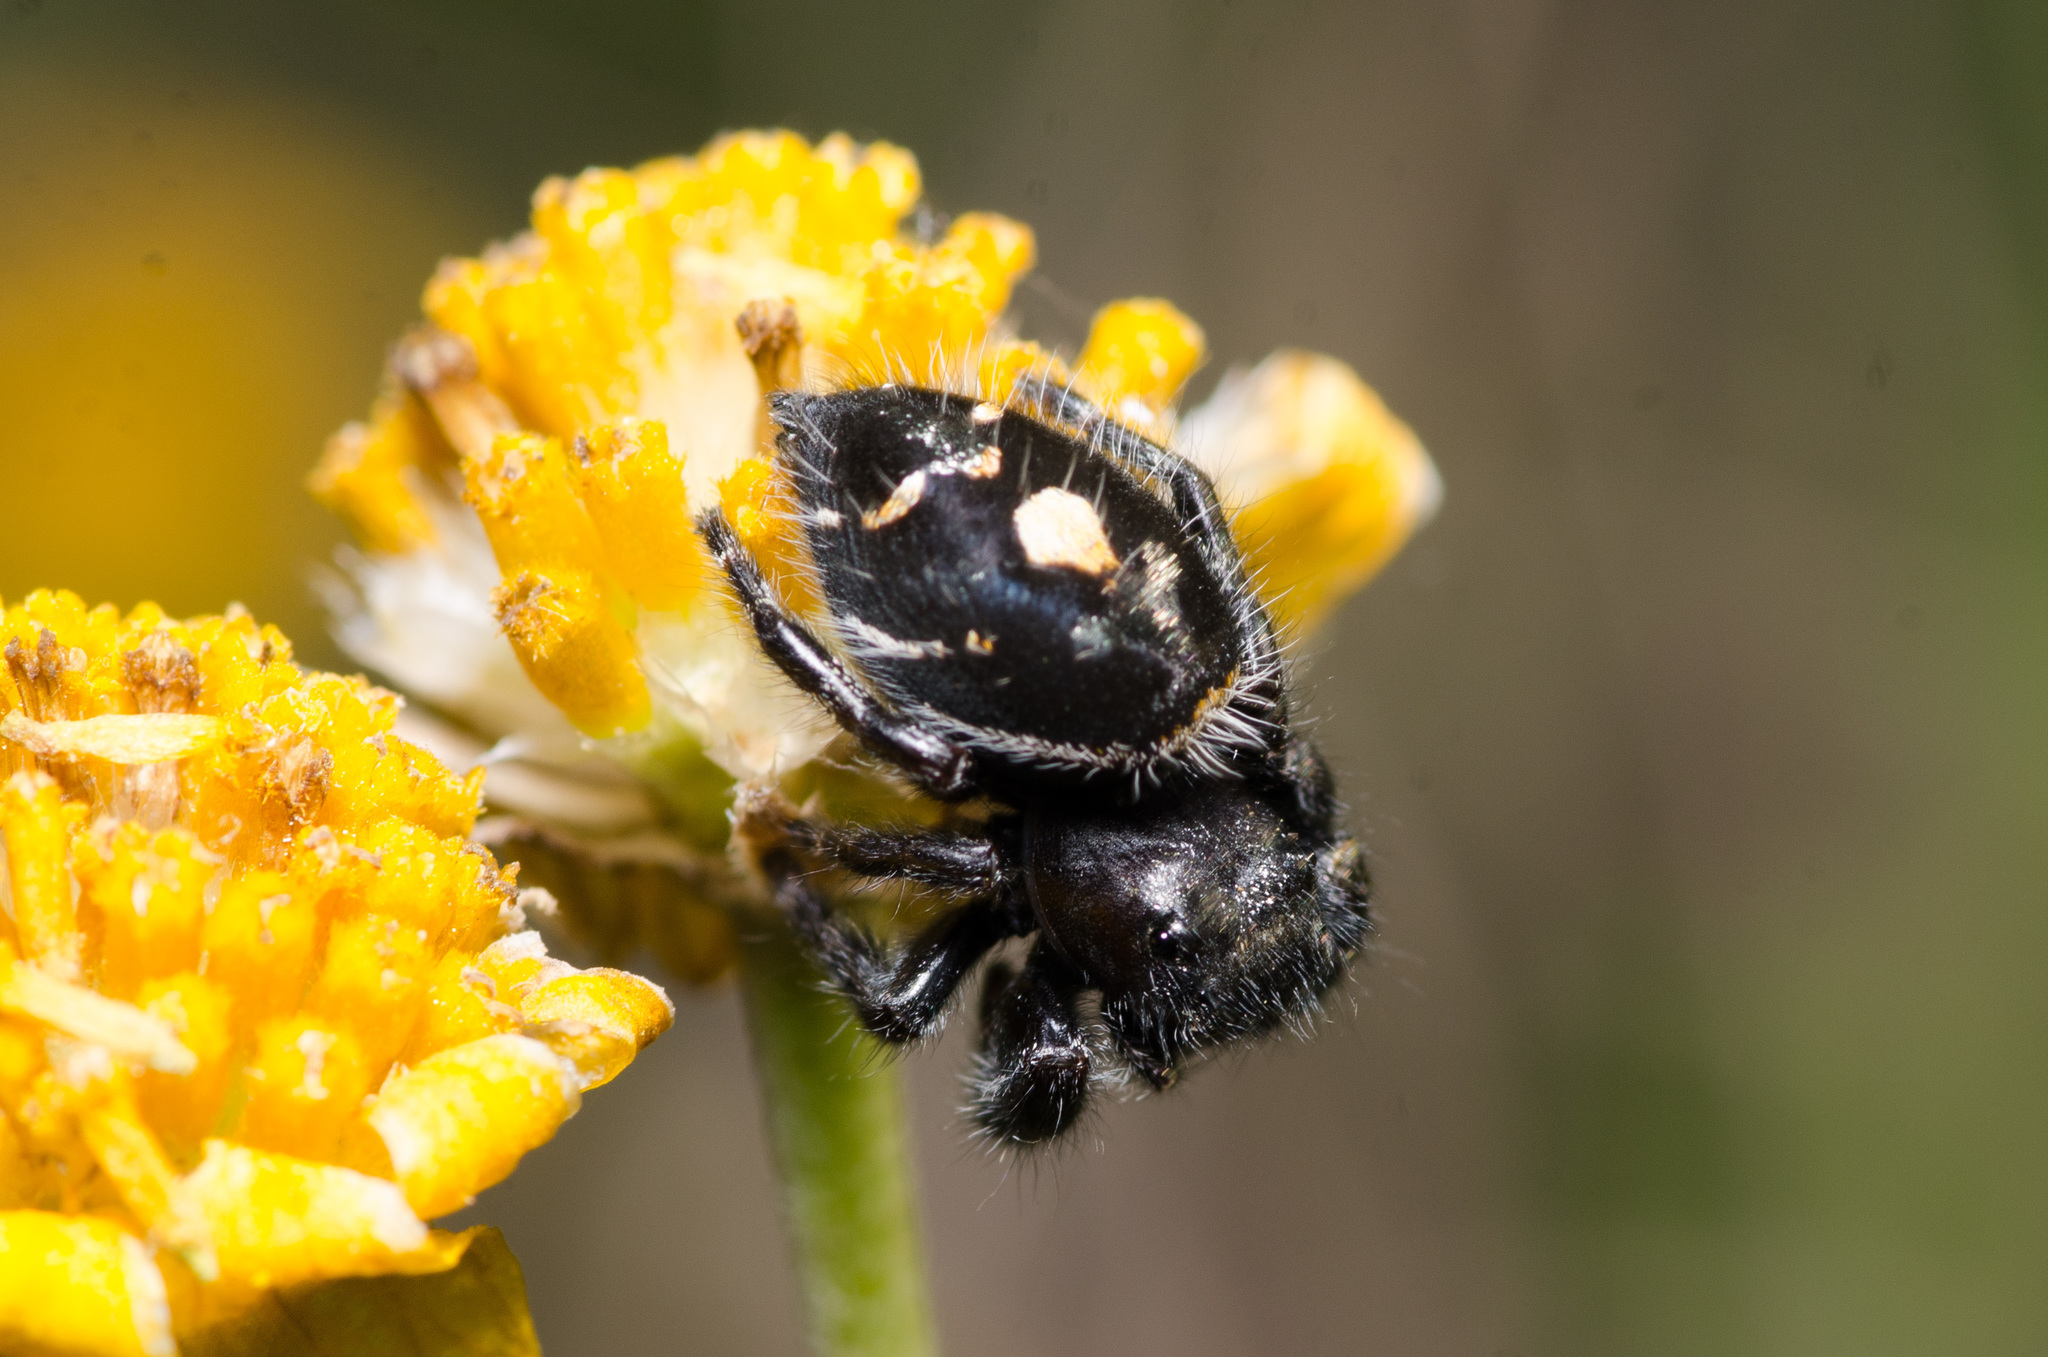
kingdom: Animalia
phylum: Arthropoda
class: Arachnida
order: Araneae
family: Salticidae
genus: Phidippus
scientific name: Phidippus audax
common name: Bold jumper
